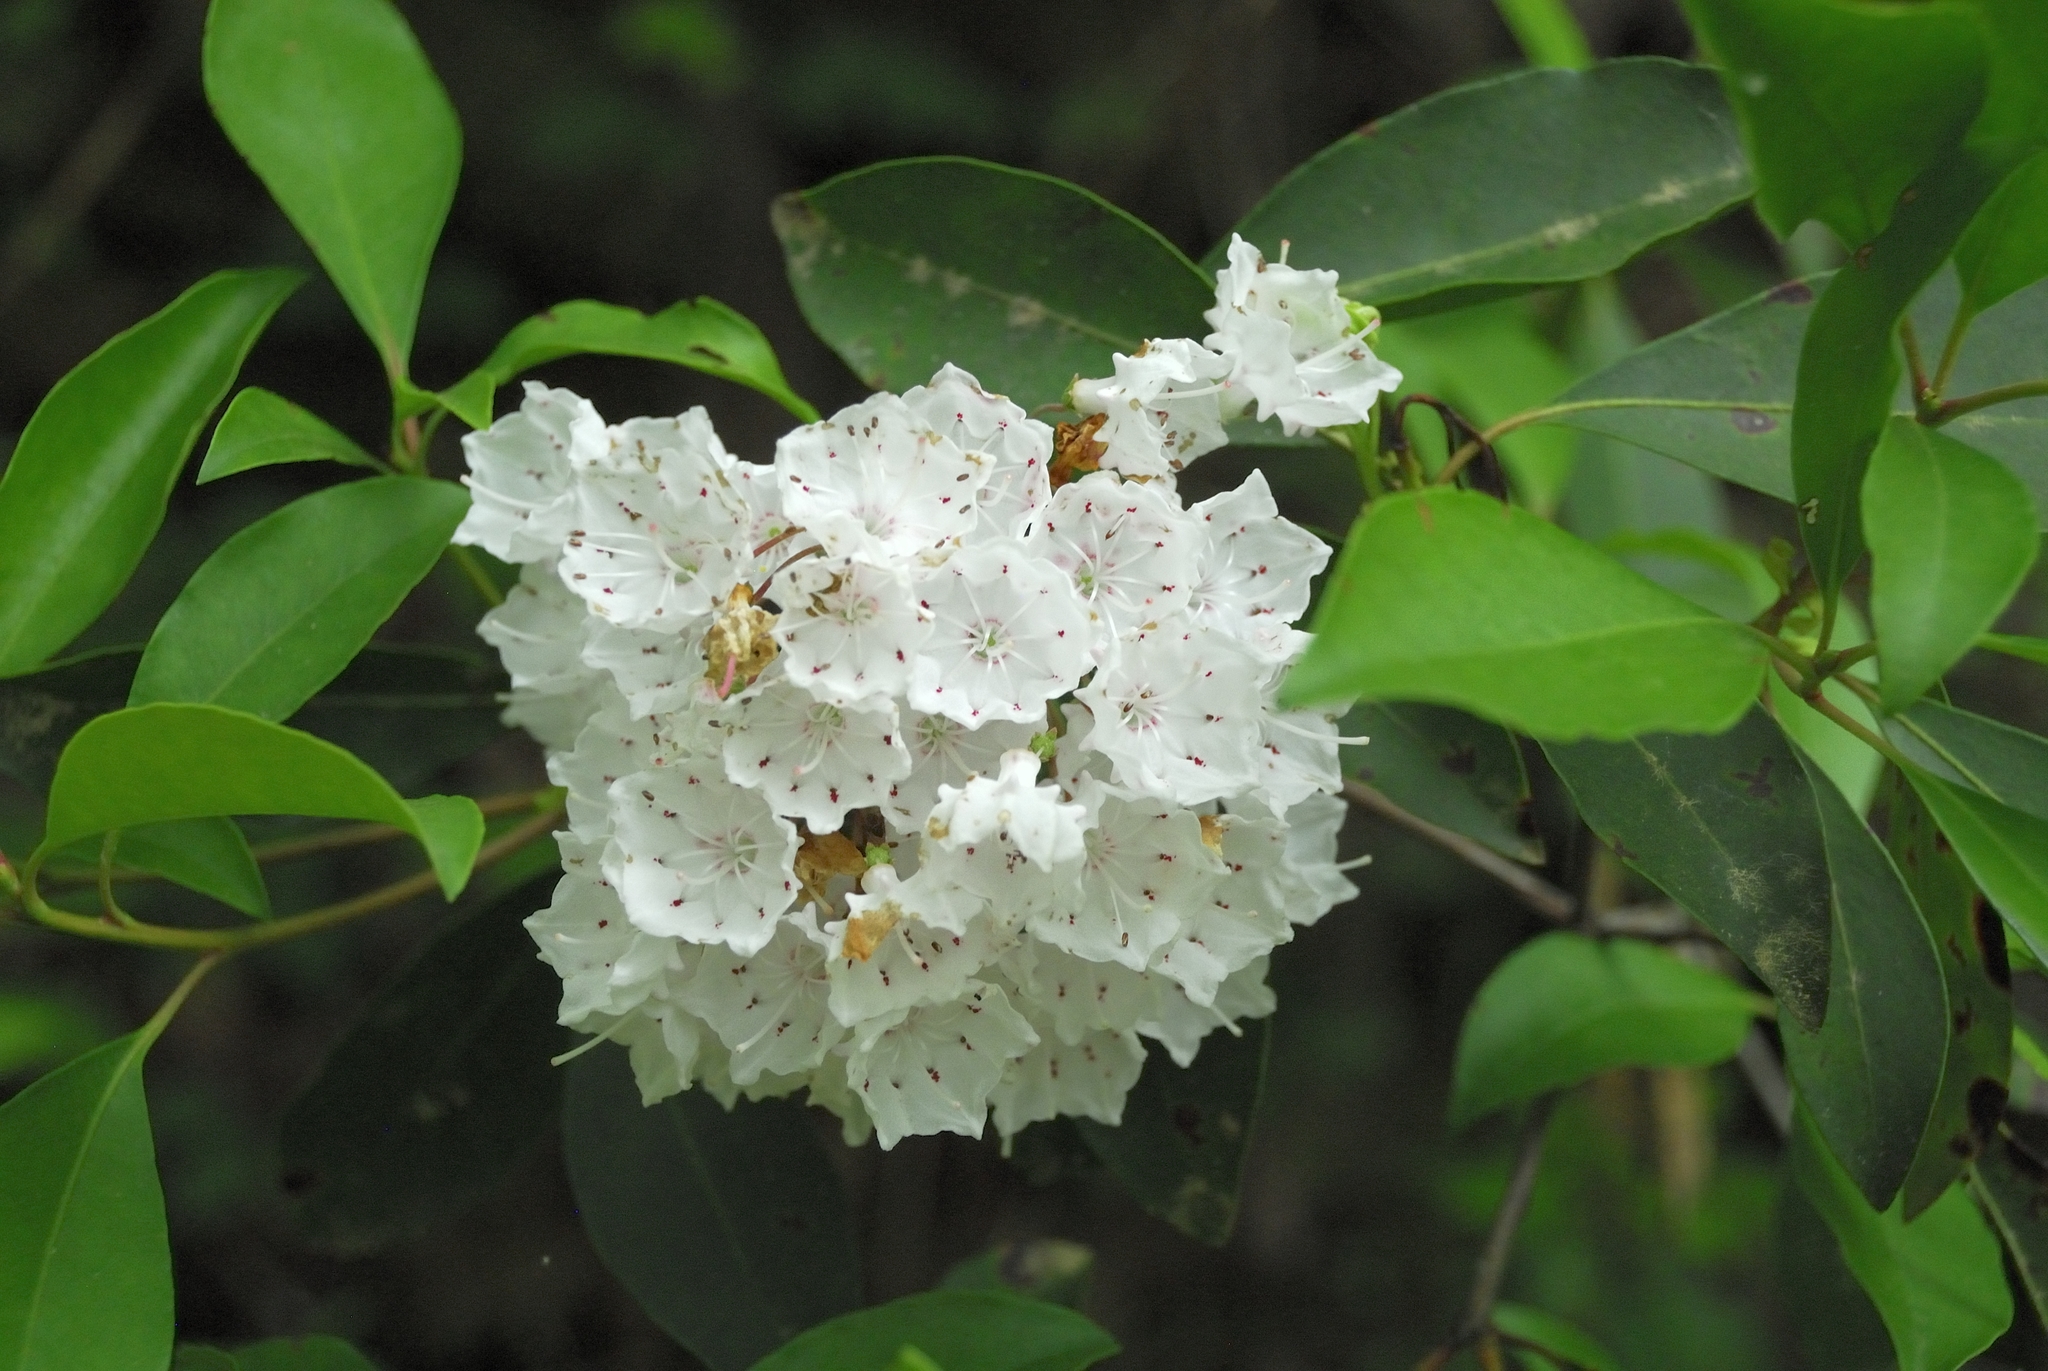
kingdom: Plantae
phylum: Tracheophyta
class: Magnoliopsida
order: Ericales
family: Ericaceae
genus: Kalmia
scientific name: Kalmia latifolia
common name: Mountain-laurel
